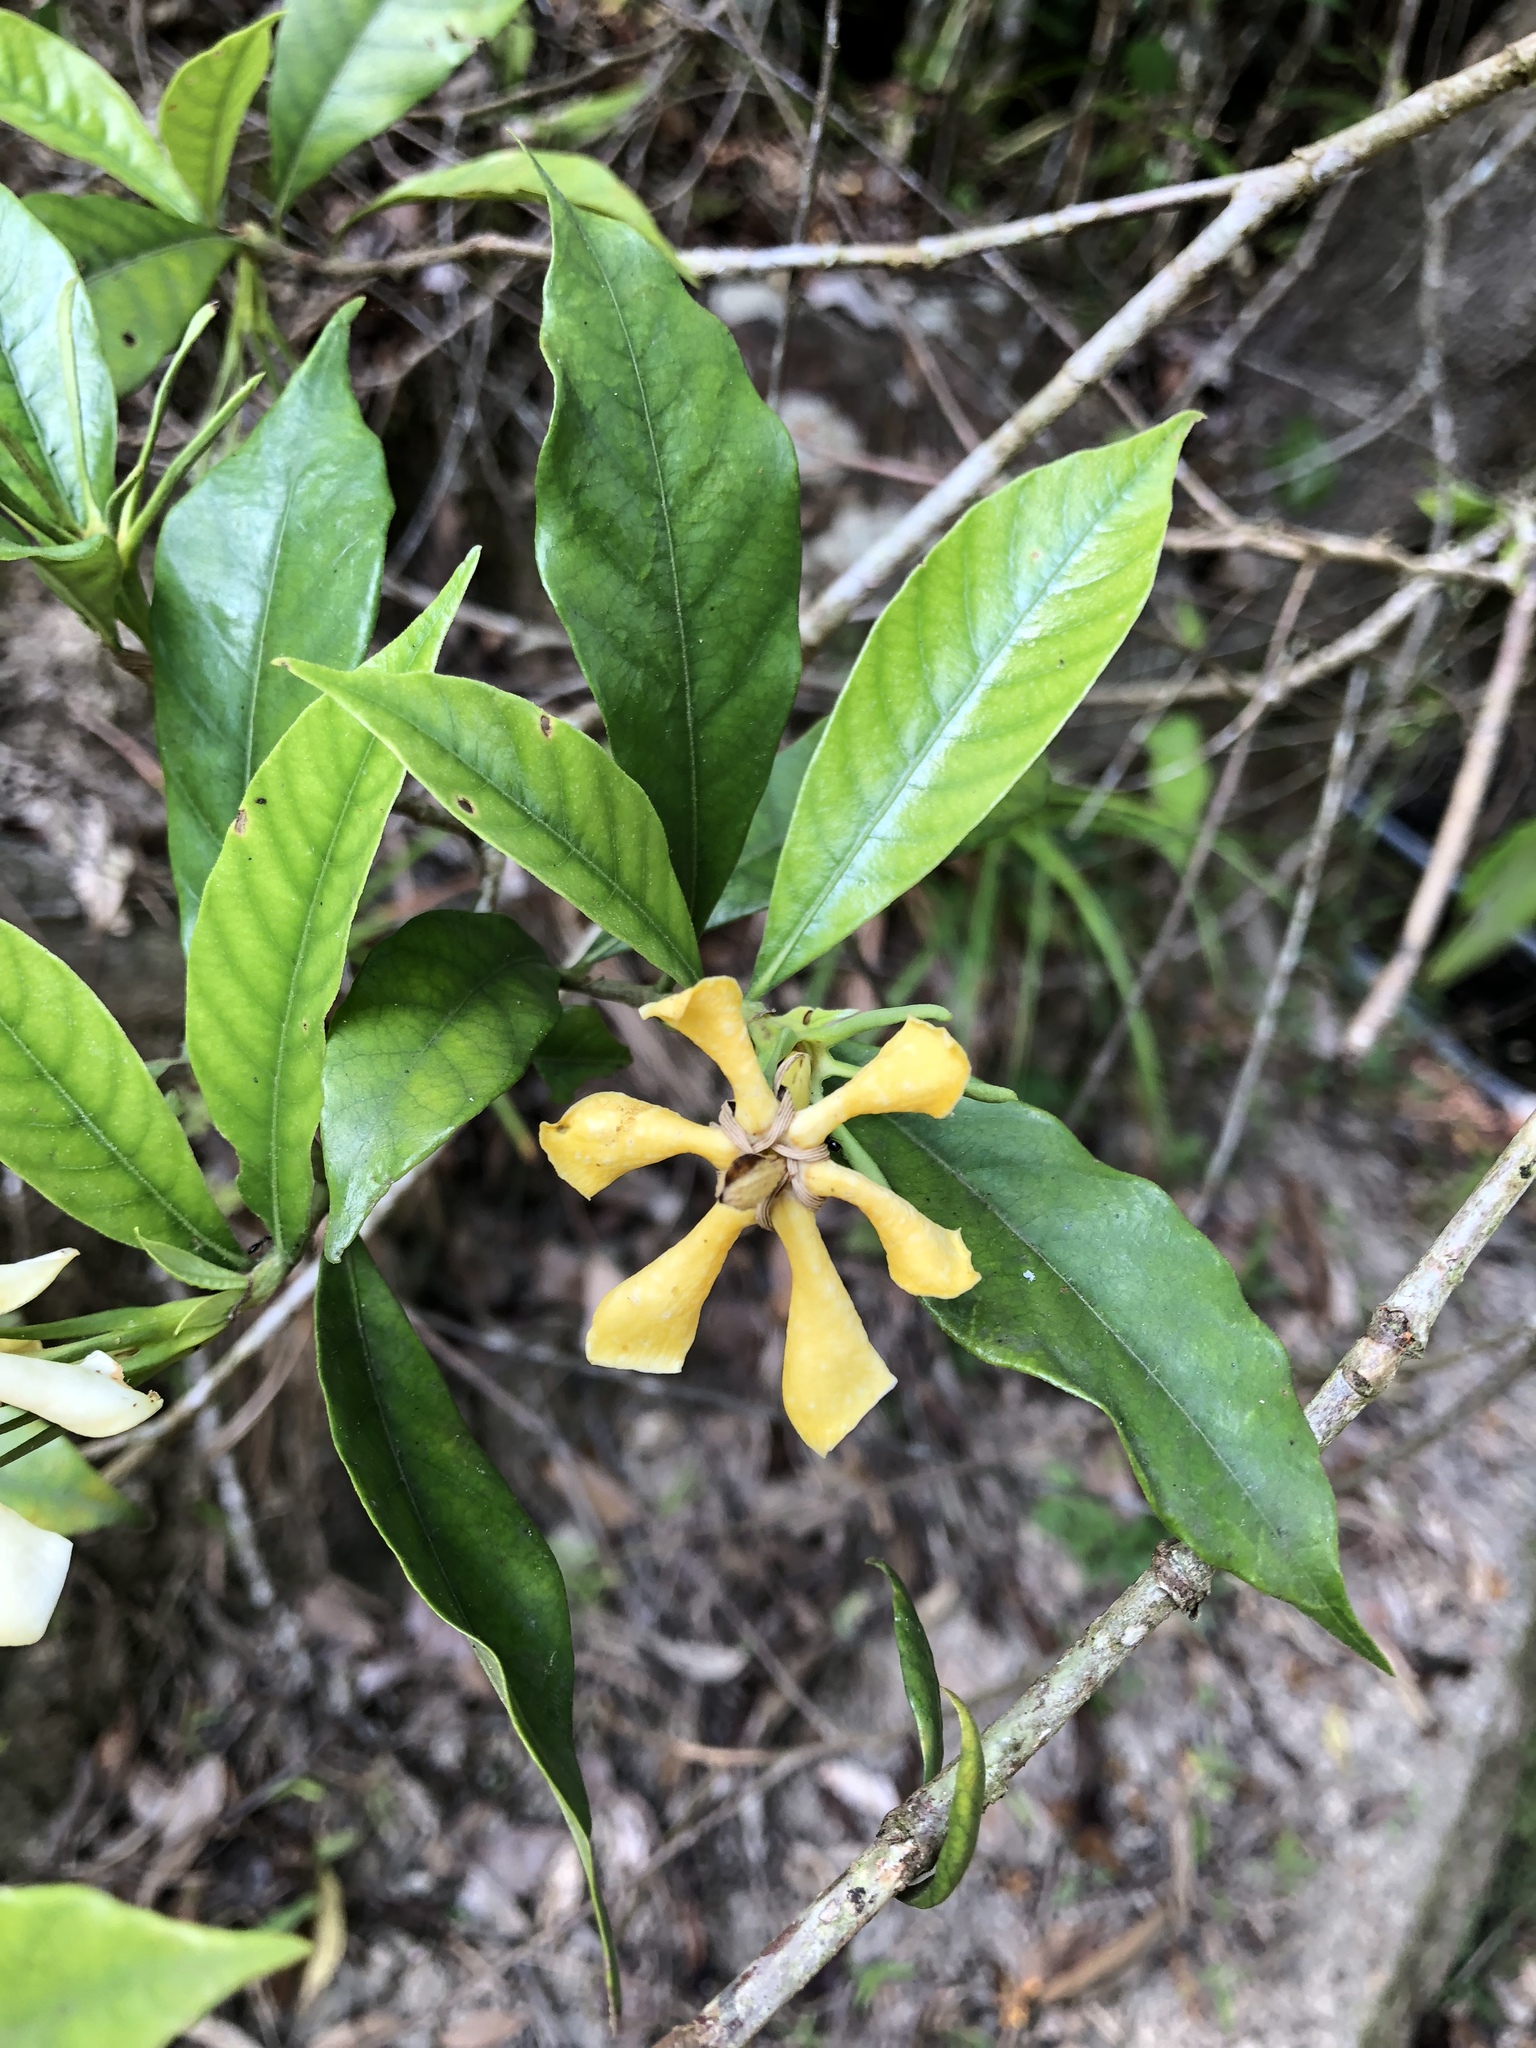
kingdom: Plantae
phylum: Tracheophyta
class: Magnoliopsida
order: Gentianales
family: Rubiaceae
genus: Gardenia
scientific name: Gardenia jasminoides
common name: Cape-jasmine
